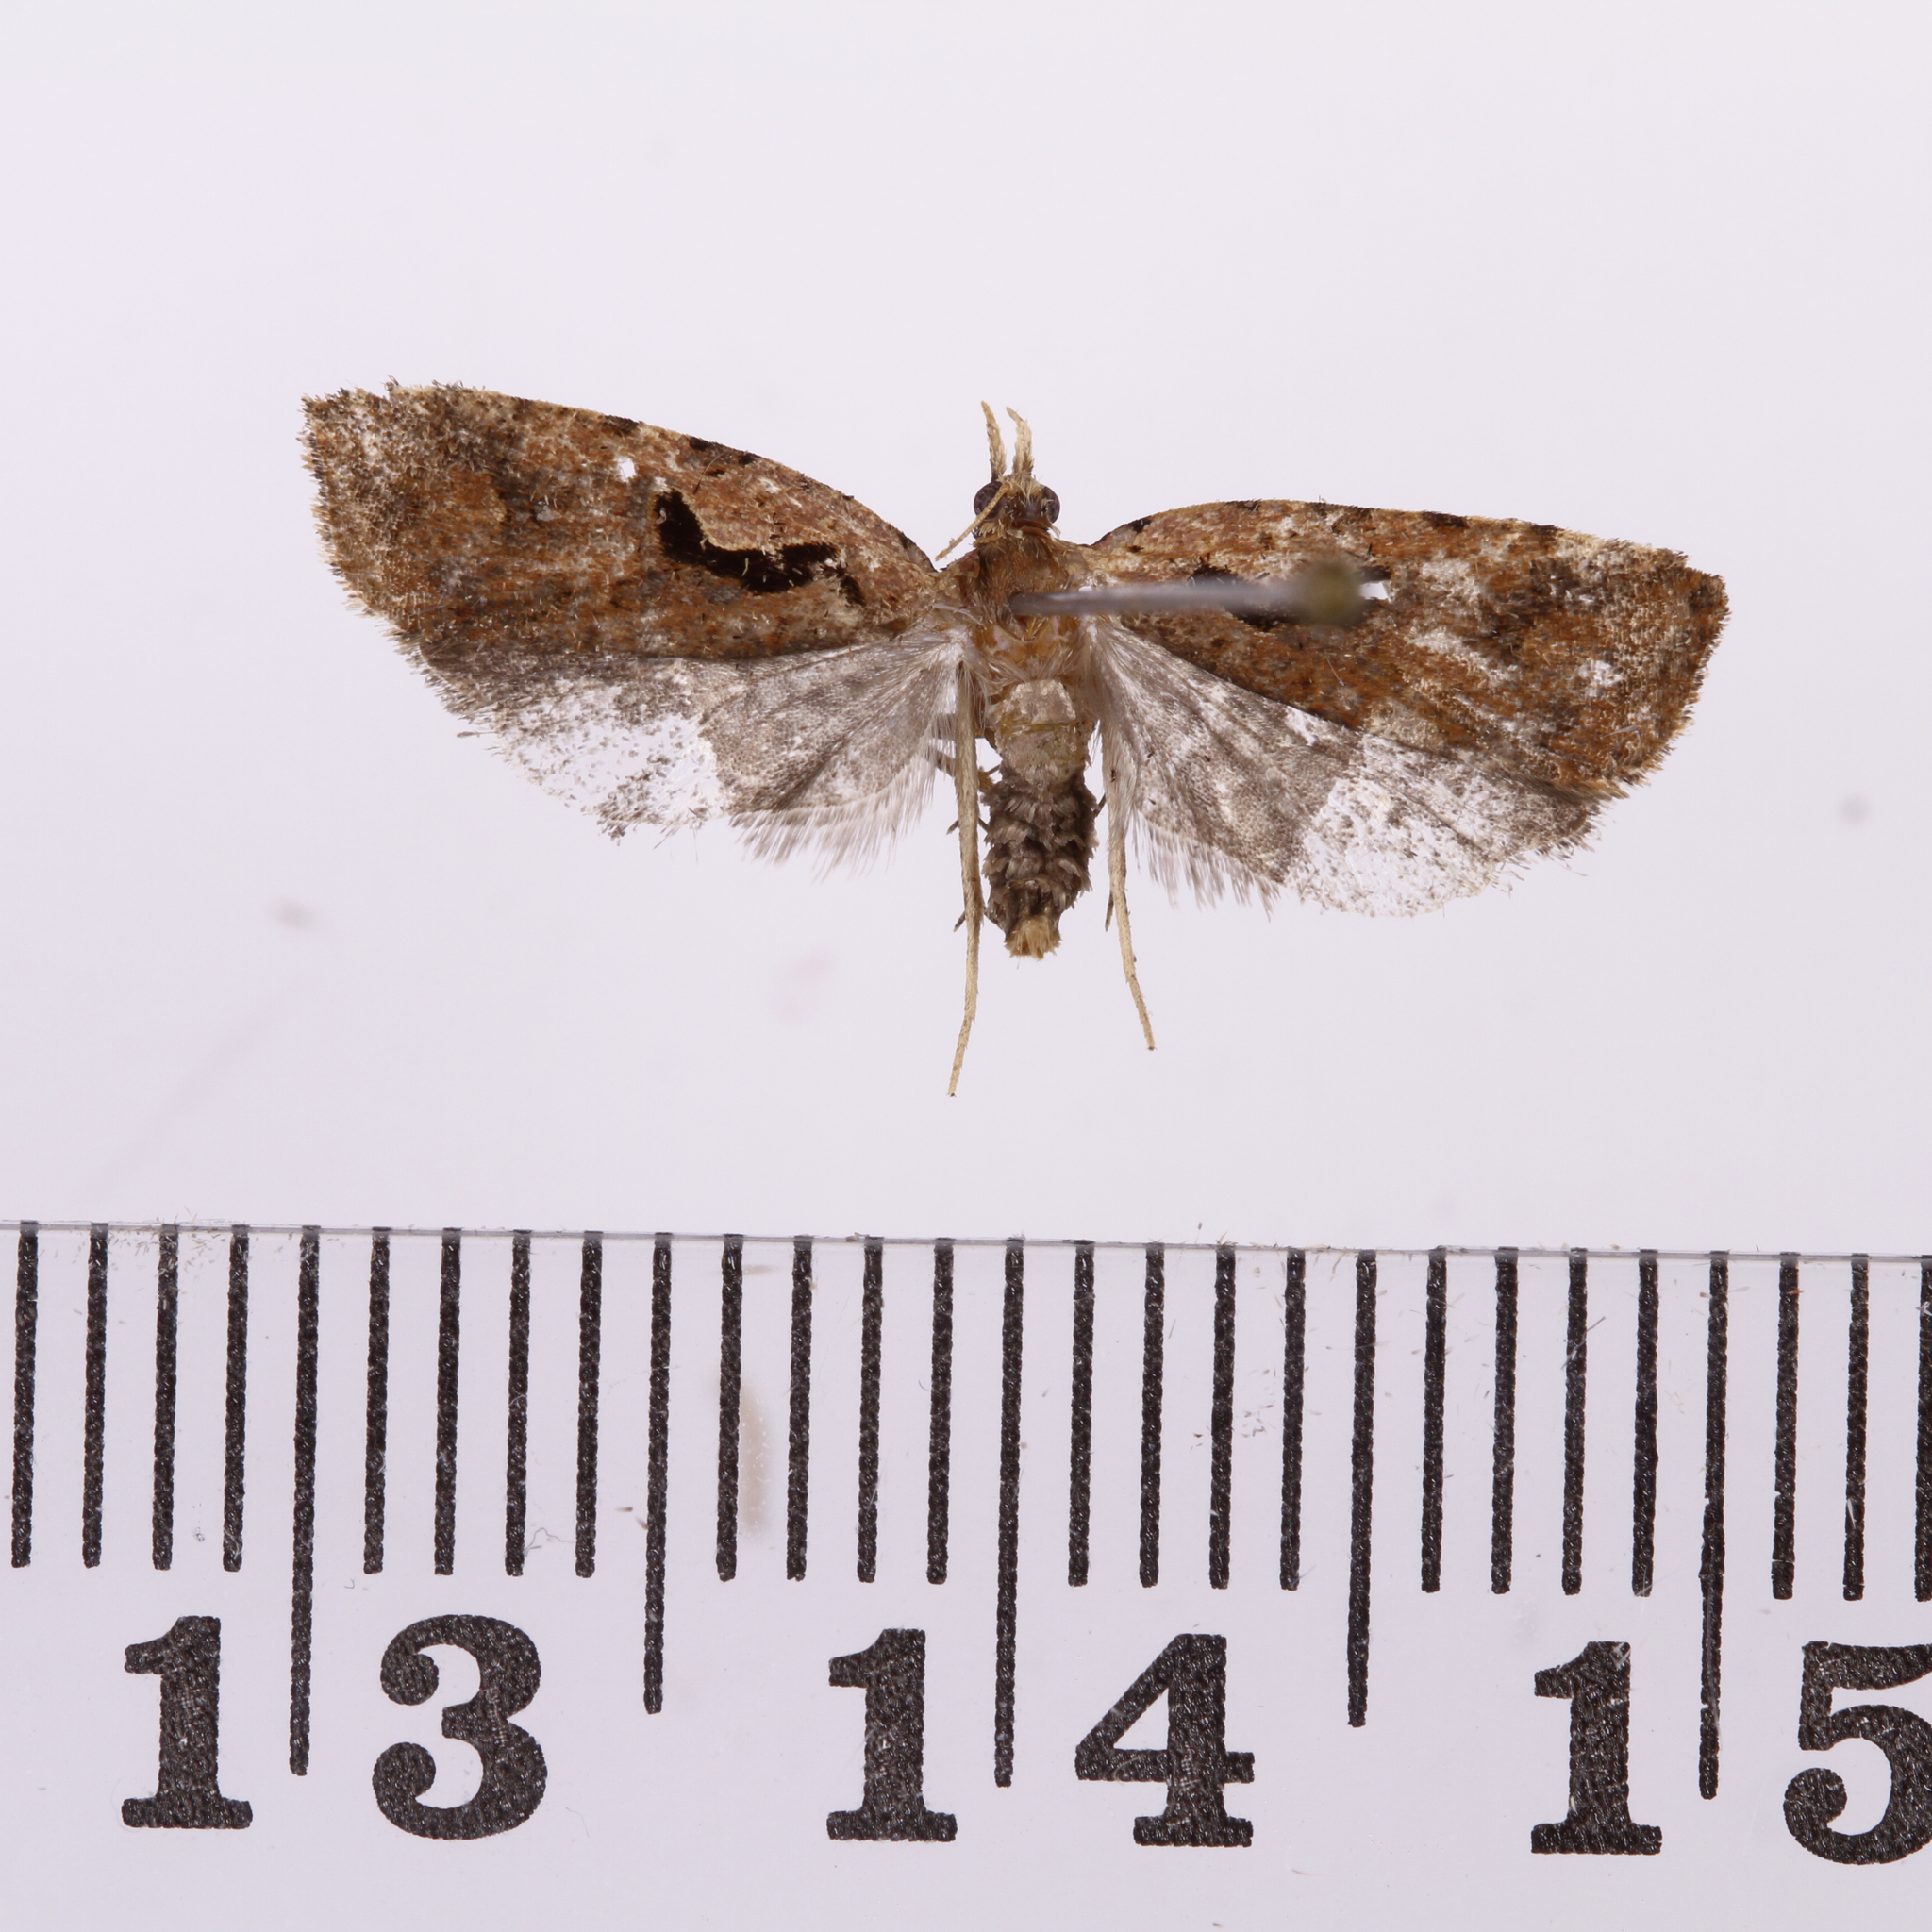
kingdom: Animalia
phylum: Arthropoda
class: Insecta
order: Lepidoptera
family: Tortricidae
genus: Cnephasia
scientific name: Cnephasia jactatana
